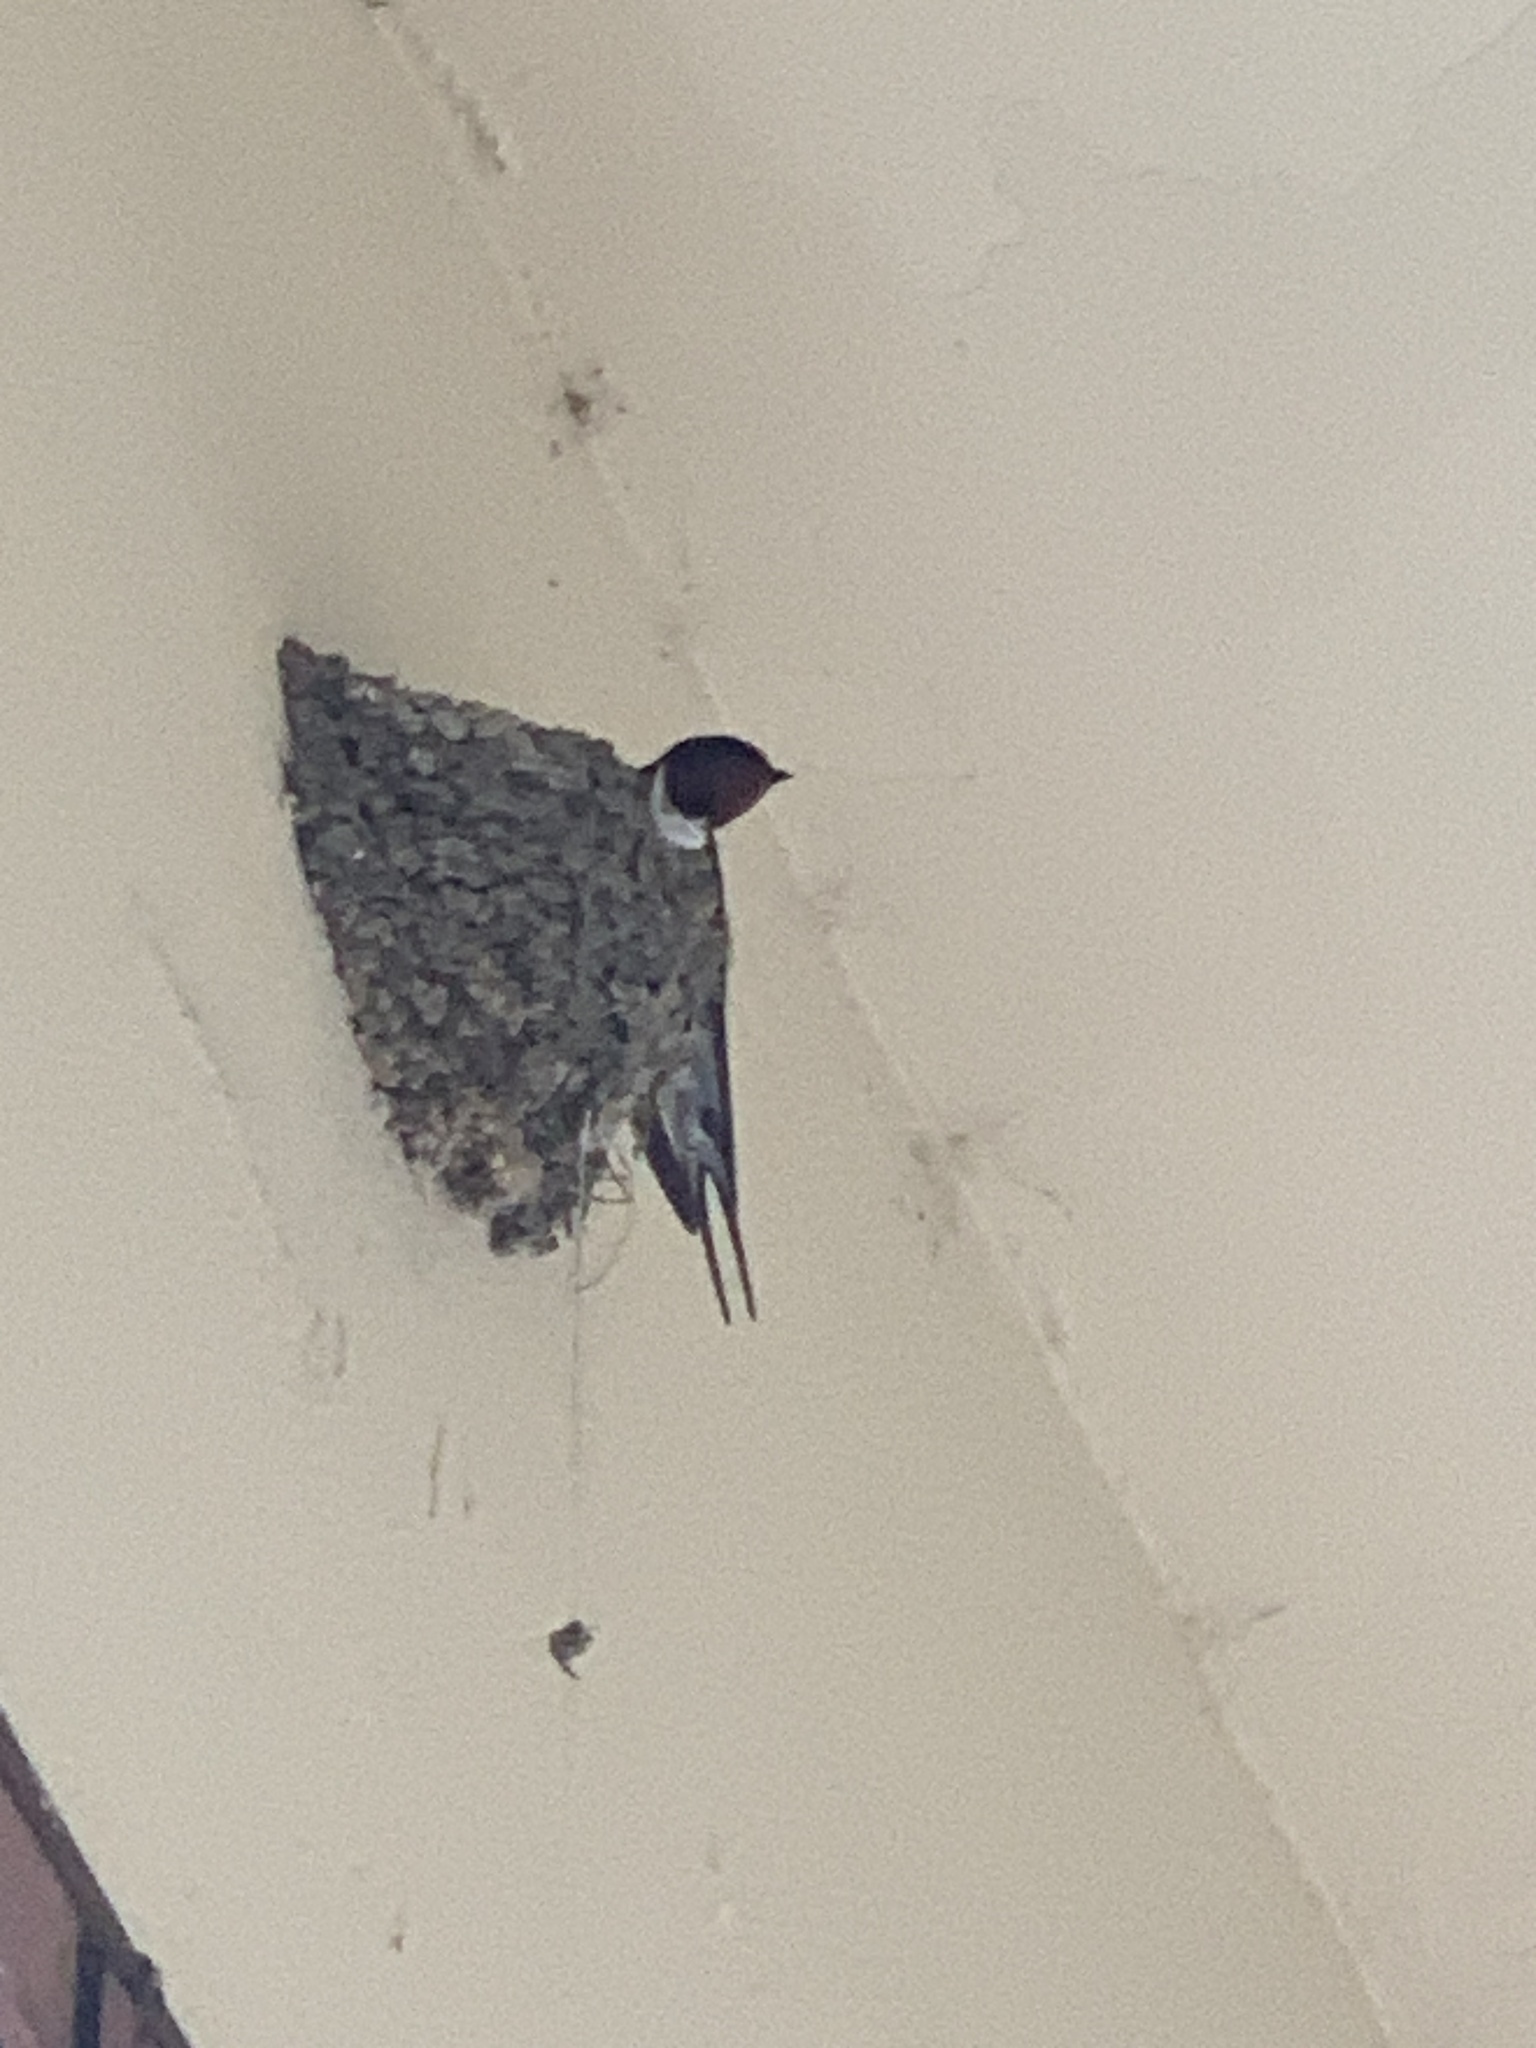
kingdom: Animalia
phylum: Chordata
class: Aves
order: Passeriformes
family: Hirundinidae
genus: Hirundo
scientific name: Hirundo rustica
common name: Barn swallow
